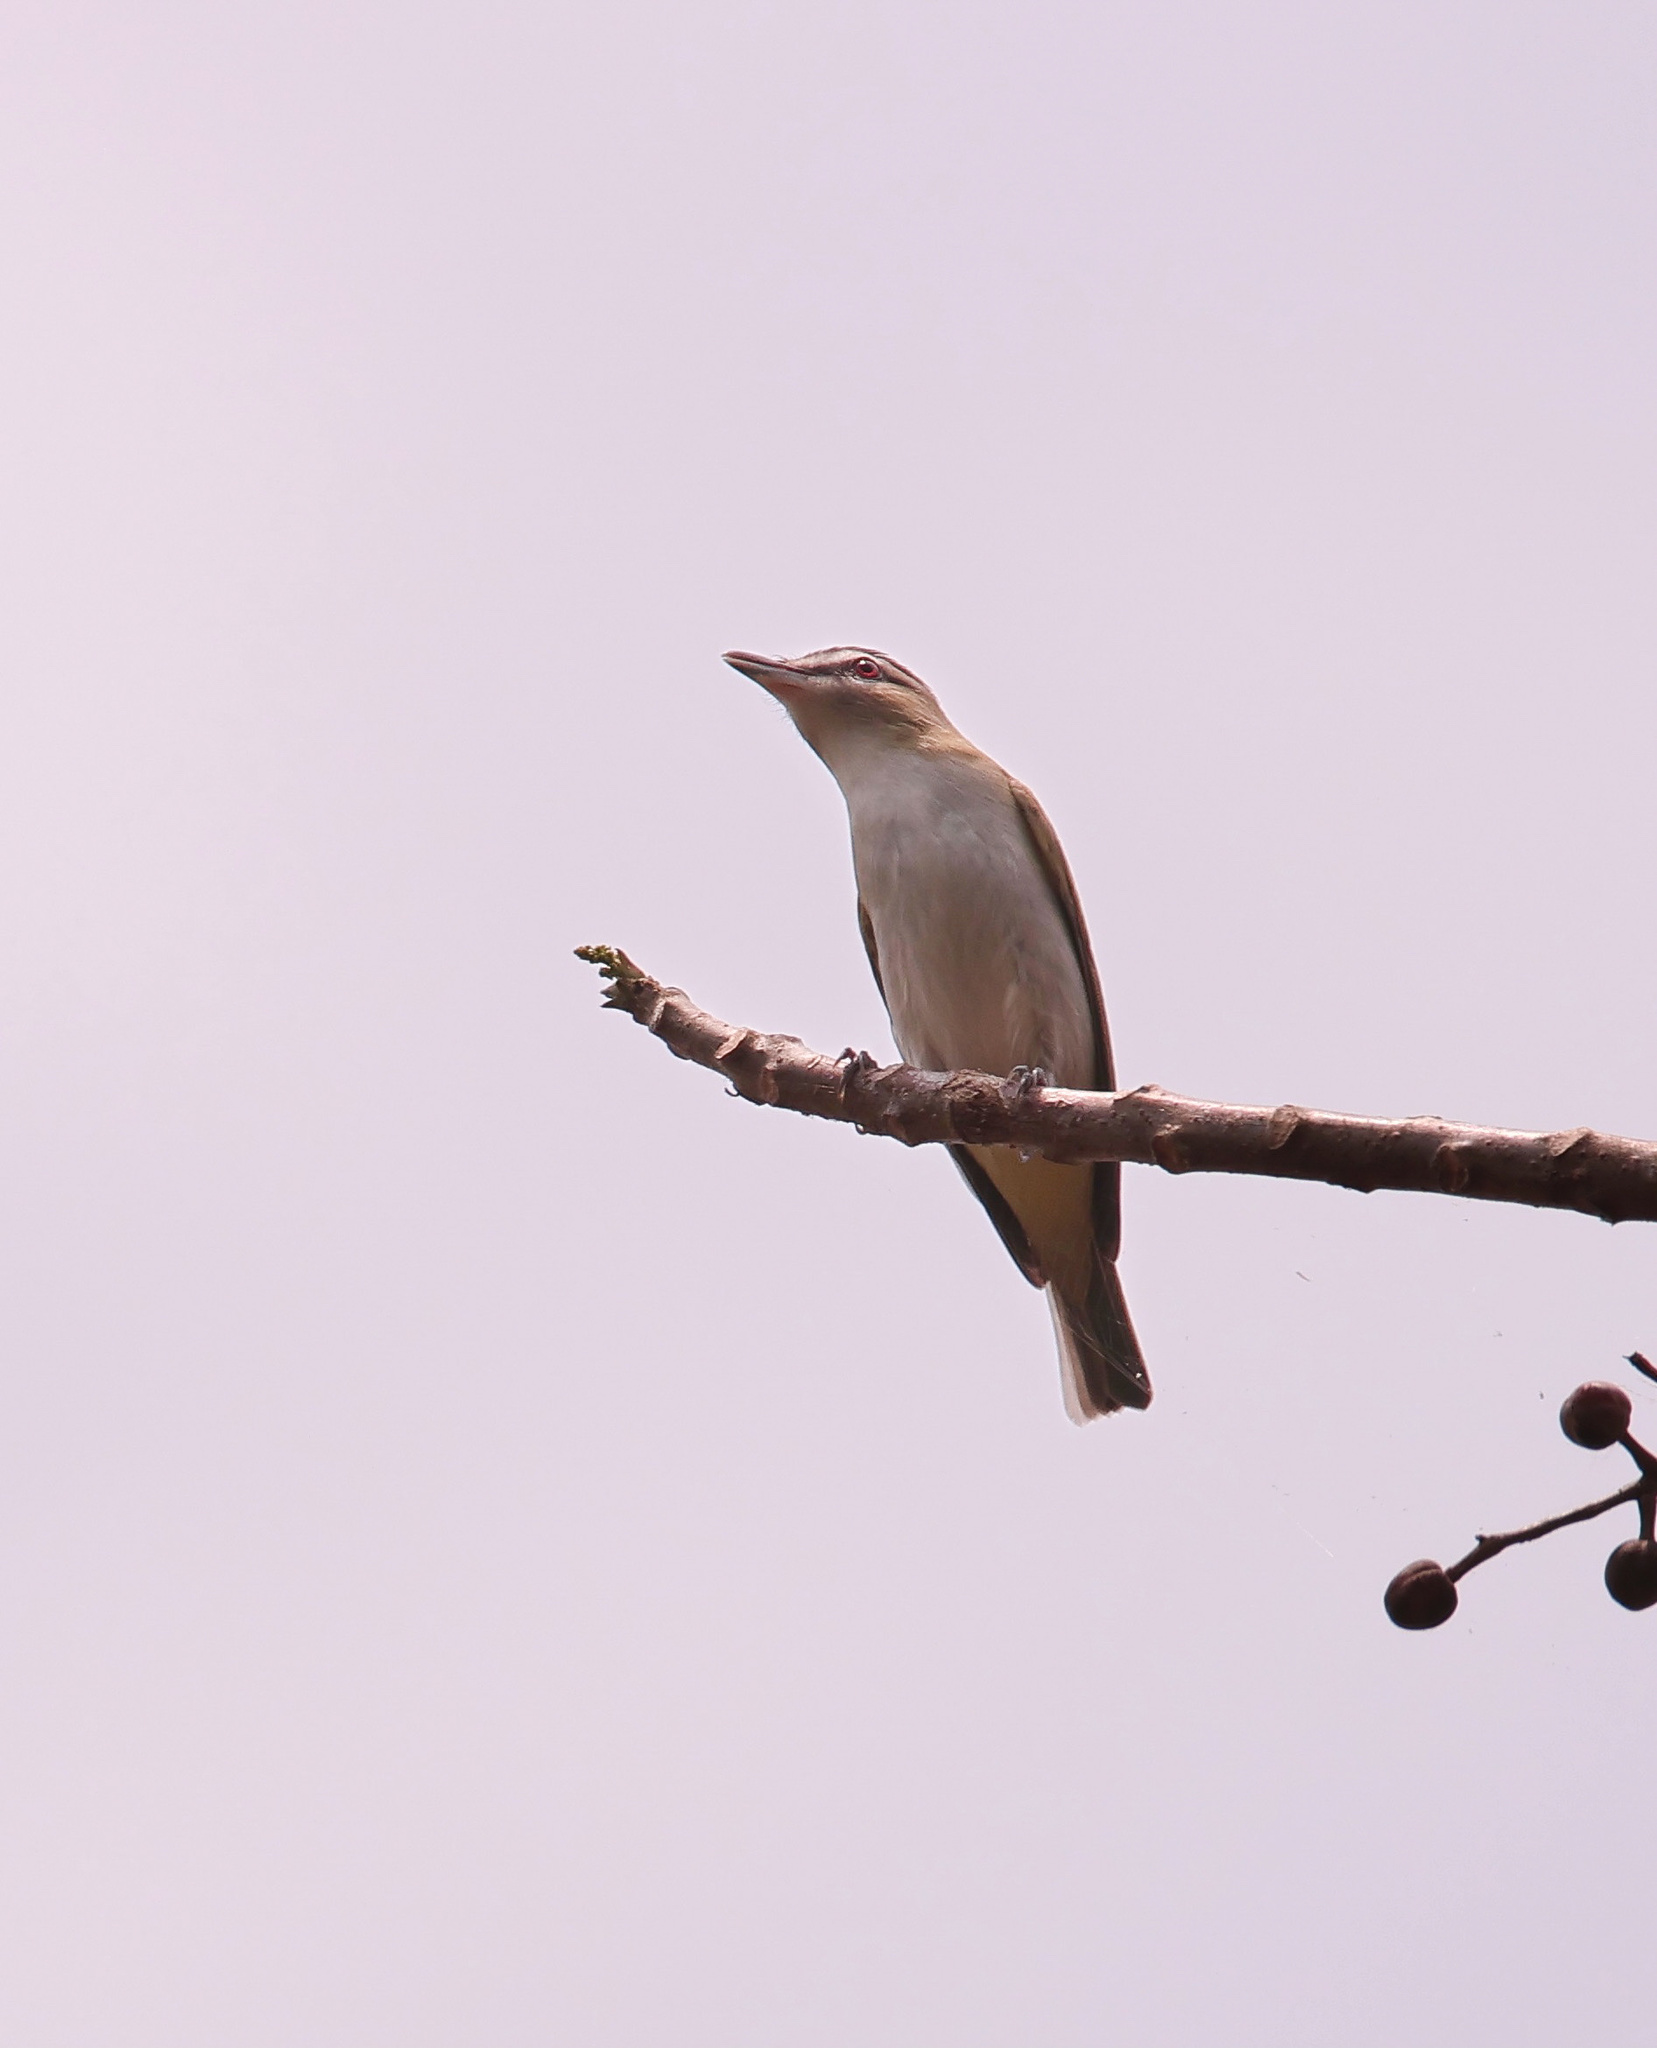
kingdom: Animalia
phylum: Chordata
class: Aves
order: Passeriformes
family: Vireonidae
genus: Vireo
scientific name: Vireo olivaceus
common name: Red-eyed vireo
